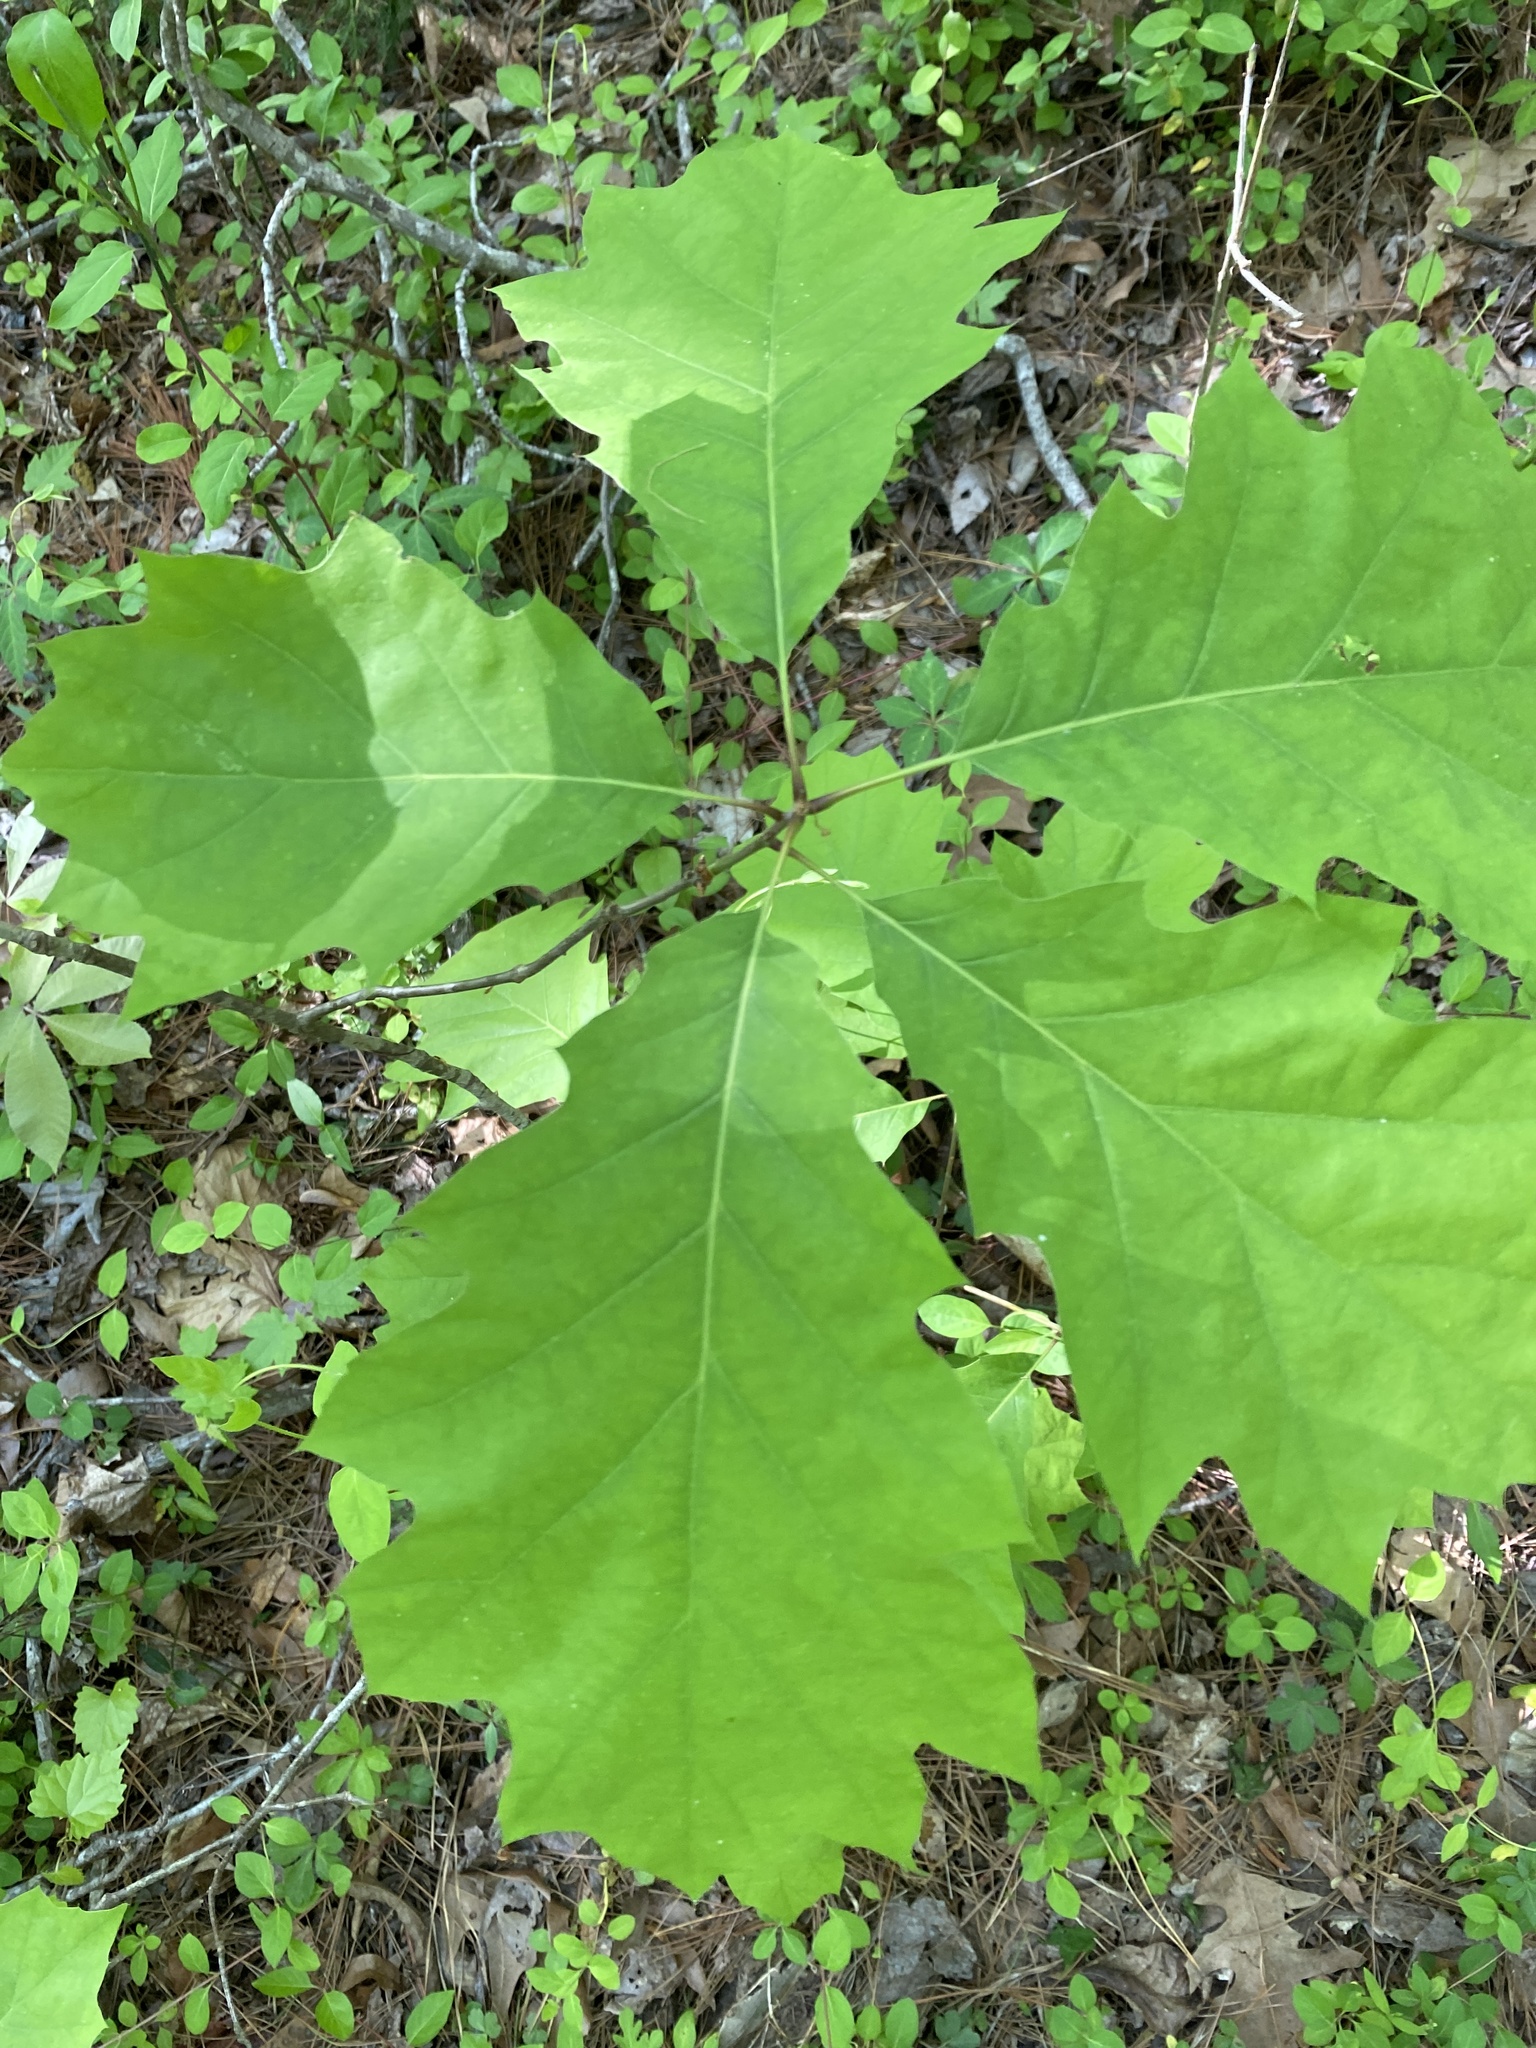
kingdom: Plantae
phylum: Tracheophyta
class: Magnoliopsida
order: Fagales
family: Fagaceae
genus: Quercus
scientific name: Quercus rubra
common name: Red oak
